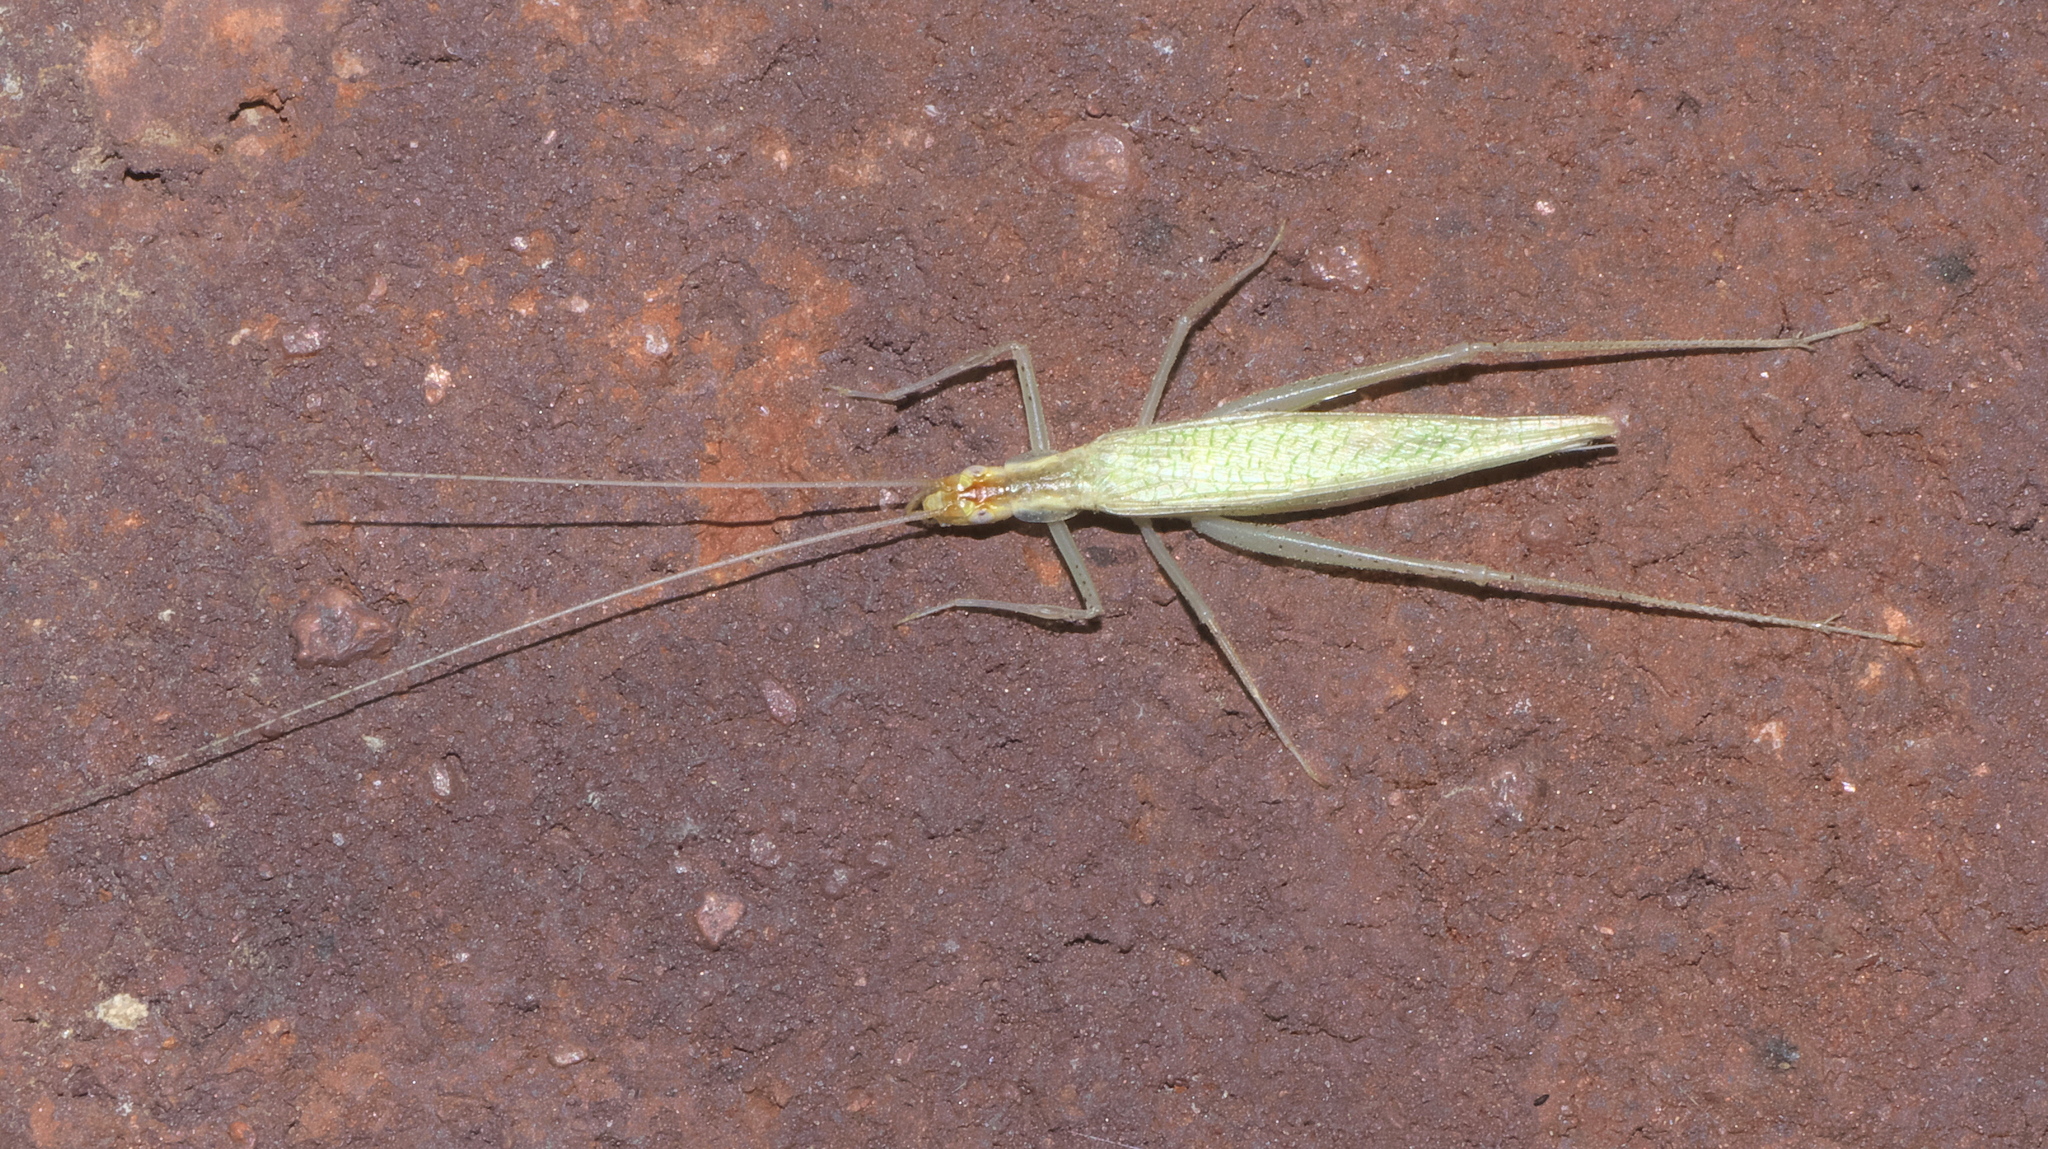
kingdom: Animalia
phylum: Arthropoda
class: Insecta
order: Orthoptera
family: Gryllidae
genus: Oecanthus
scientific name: Oecanthus niveus
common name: Narrow-winged tree cricket
